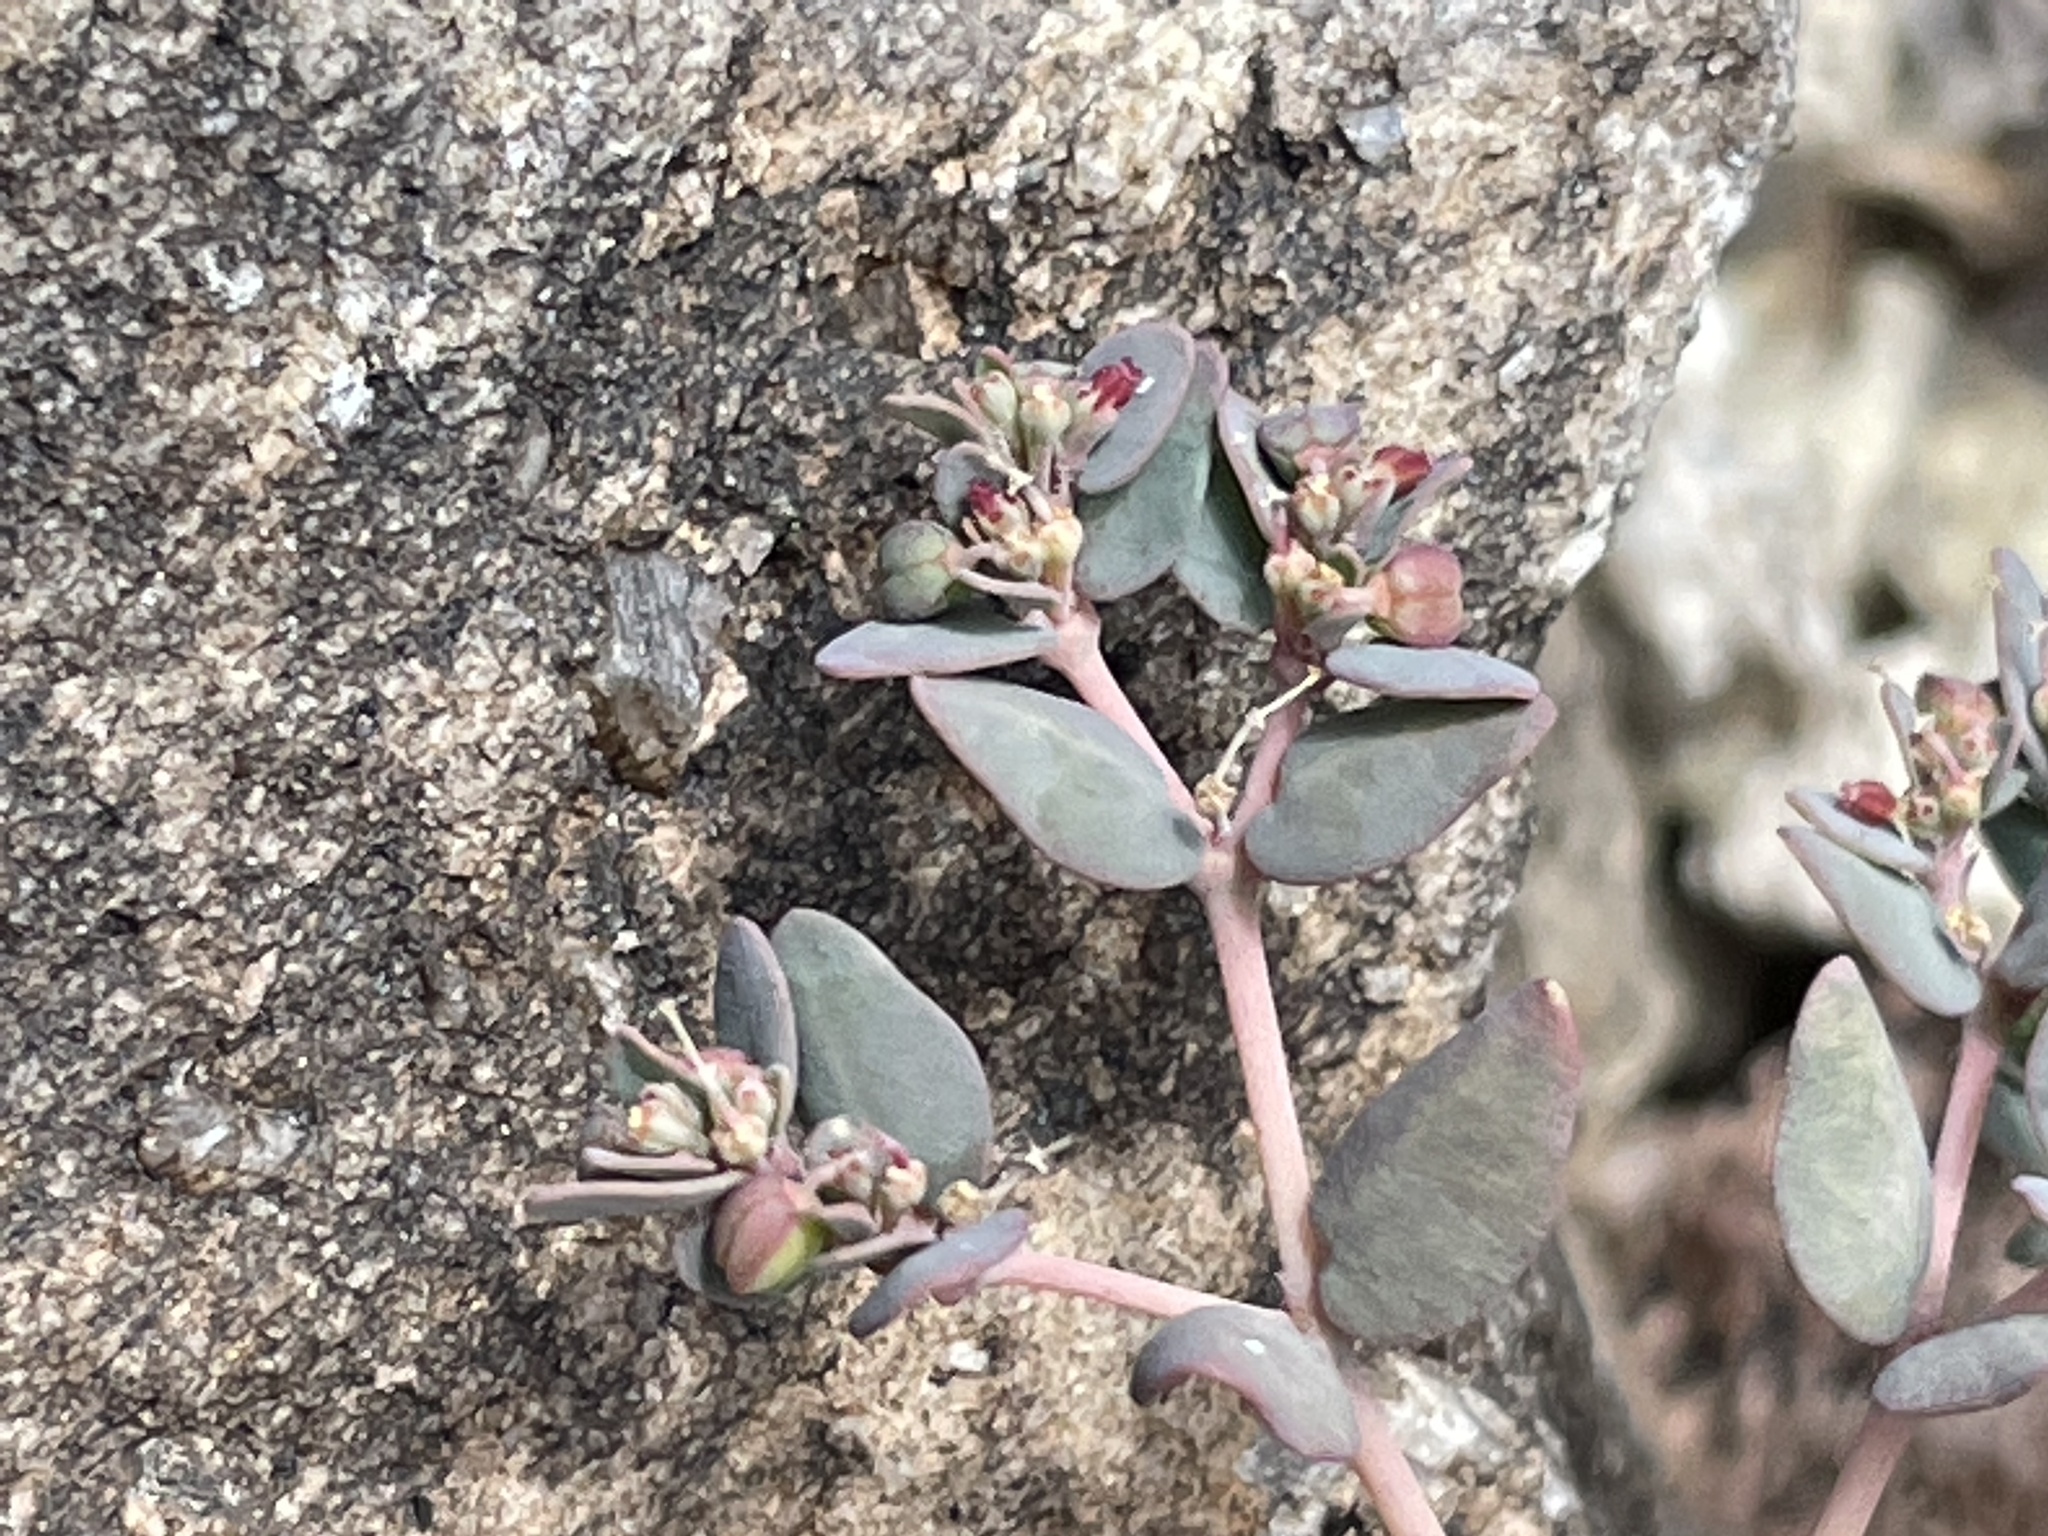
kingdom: Plantae
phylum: Tracheophyta
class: Magnoliopsida
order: Malpighiales
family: Euphorbiaceae
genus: Euphorbia
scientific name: Euphorbia micromera
